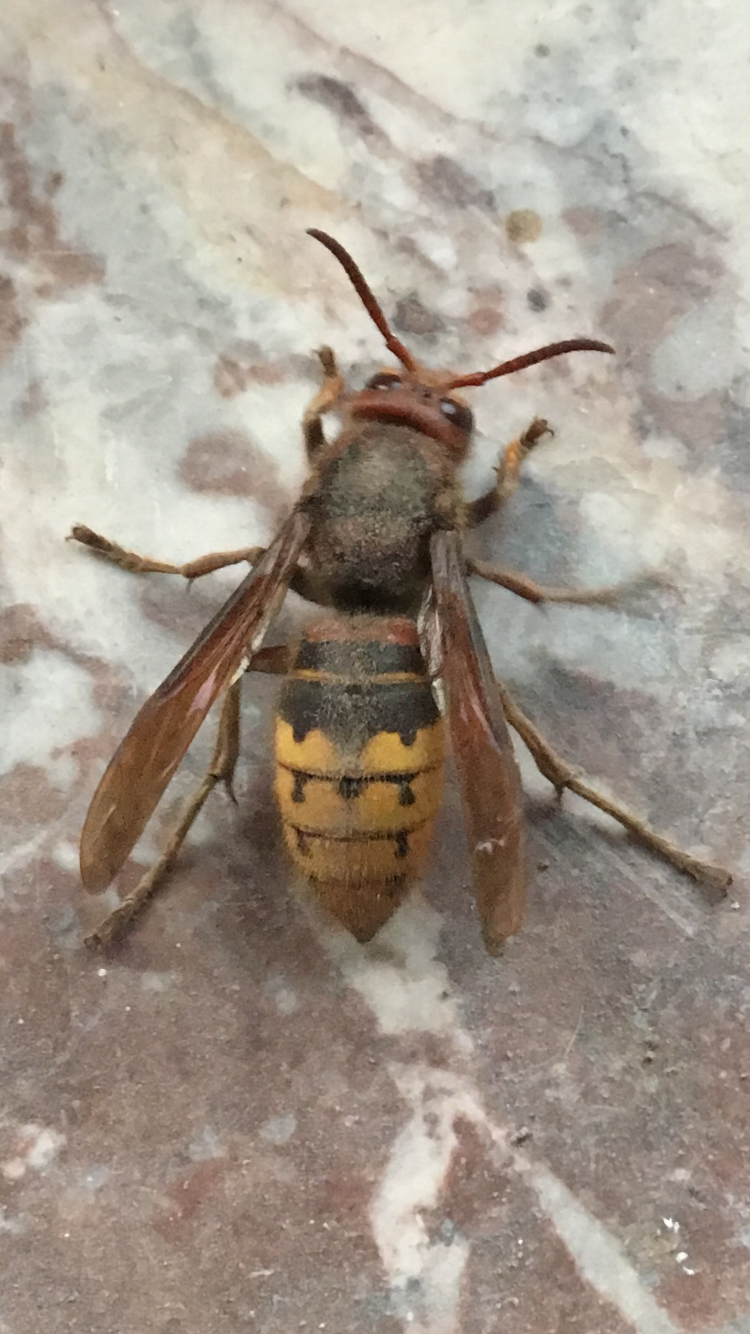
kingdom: Animalia
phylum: Arthropoda
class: Insecta
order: Hymenoptera
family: Vespidae
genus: Vespa
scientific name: Vespa crabro
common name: Hornet
